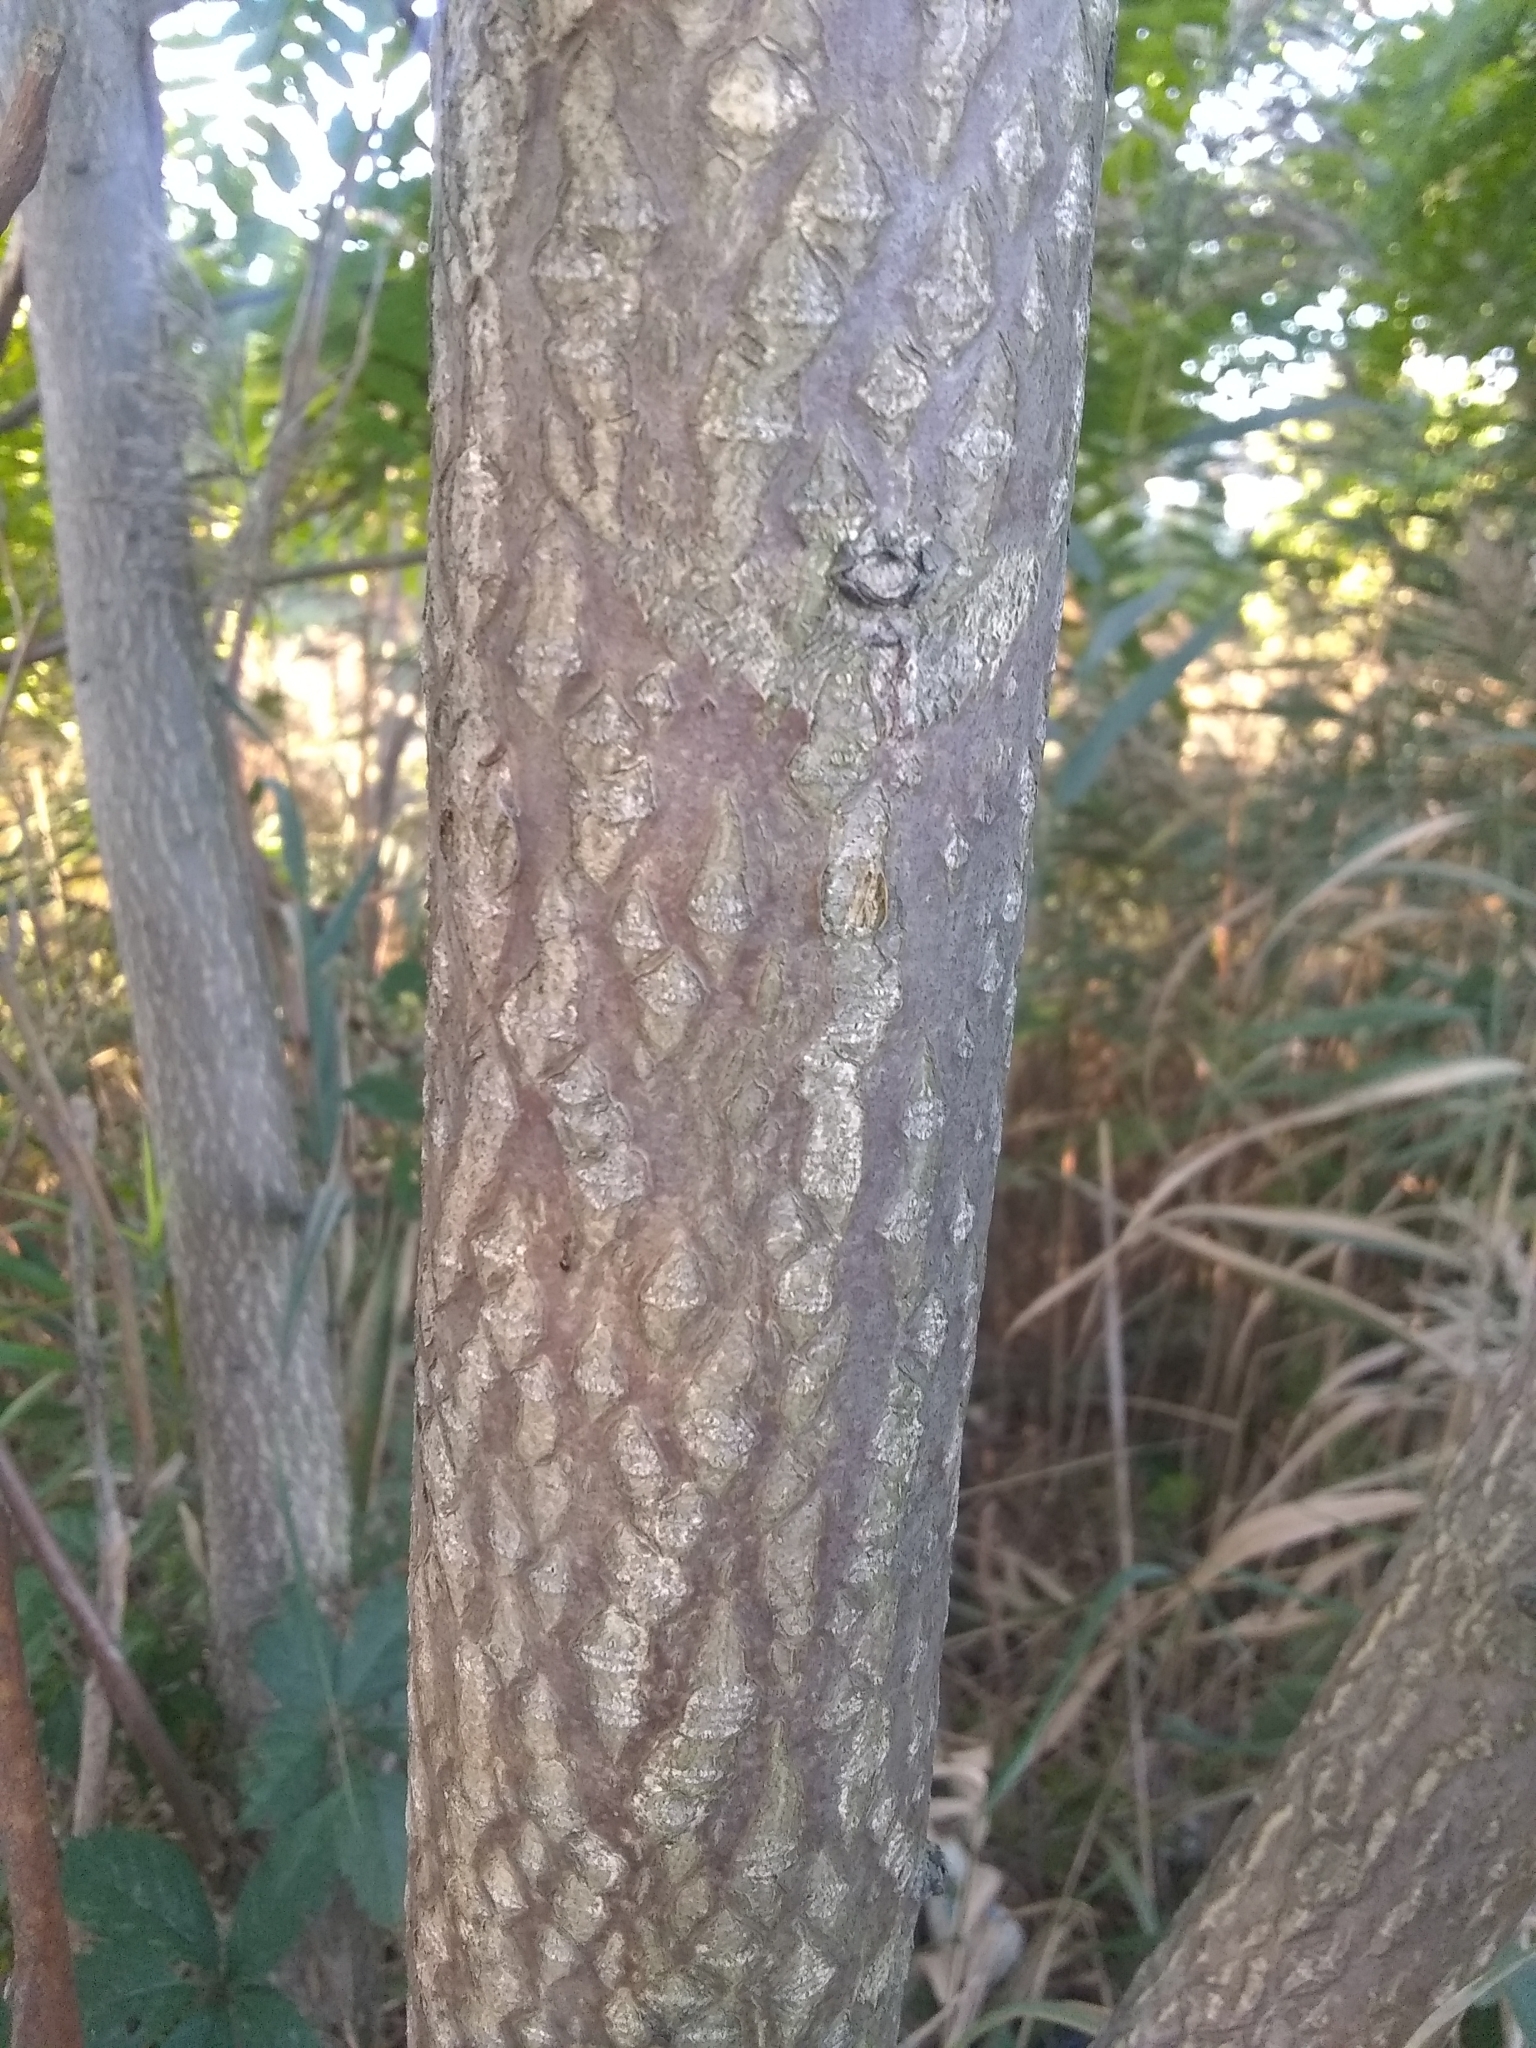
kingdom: Plantae
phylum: Tracheophyta
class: Magnoliopsida
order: Sapindales
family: Simaroubaceae
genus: Ailanthus
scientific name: Ailanthus altissima
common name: Tree-of-heaven
